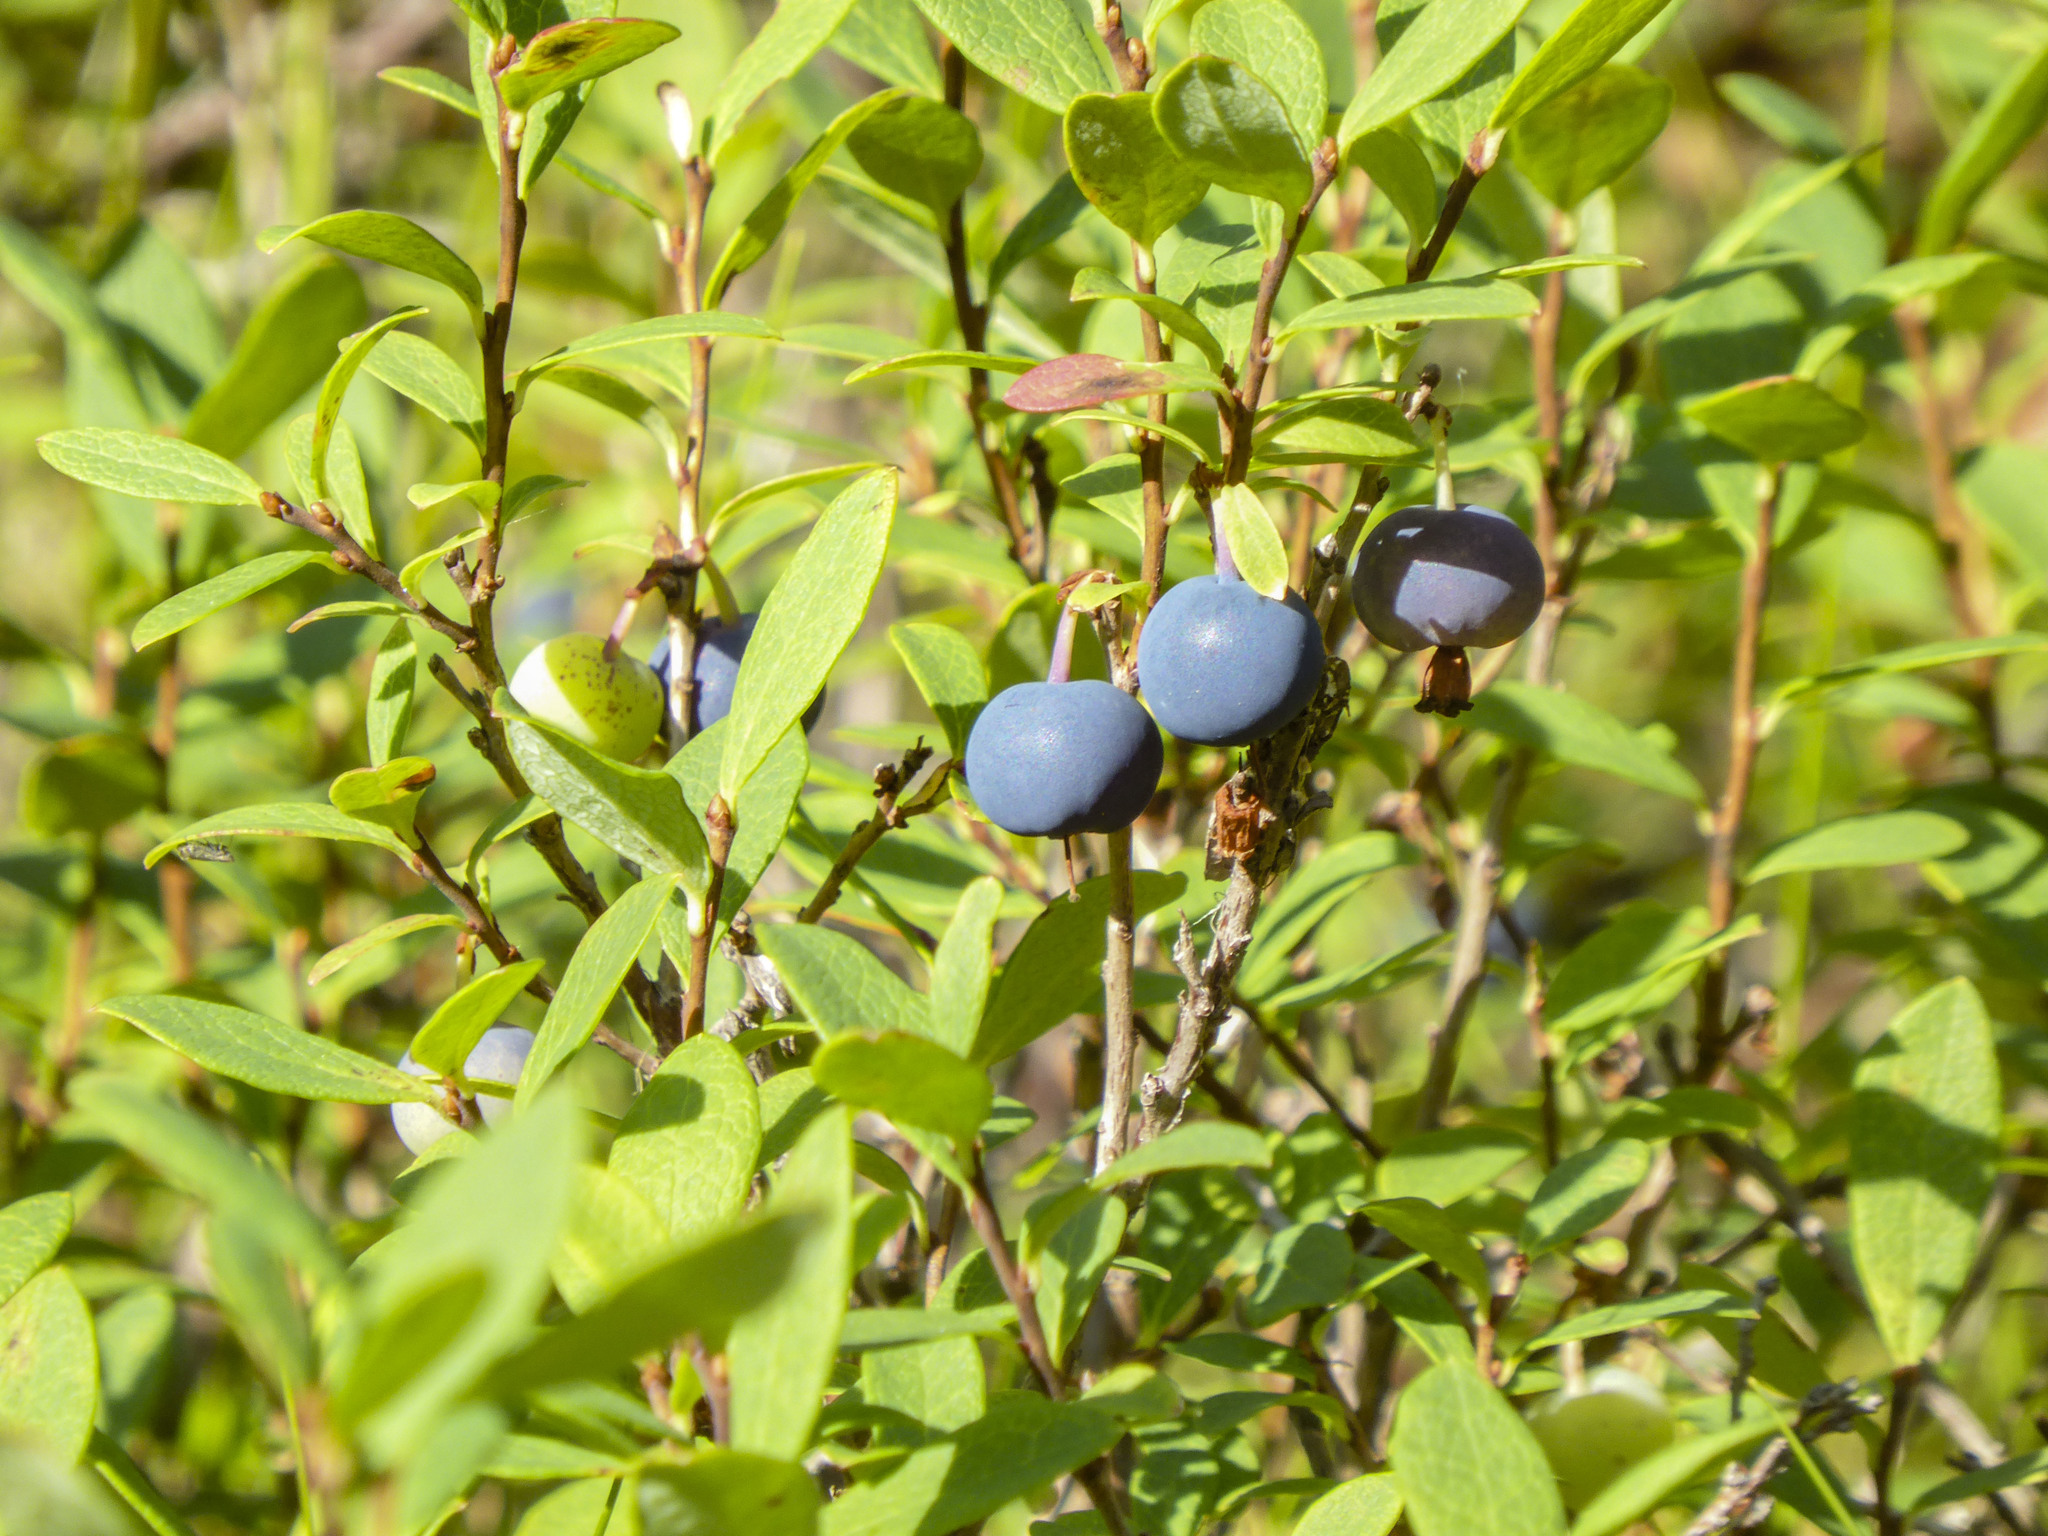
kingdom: Plantae
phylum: Tracheophyta
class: Magnoliopsida
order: Ericales
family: Ericaceae
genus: Vaccinium
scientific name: Vaccinium uliginosum
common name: Bog bilberry
